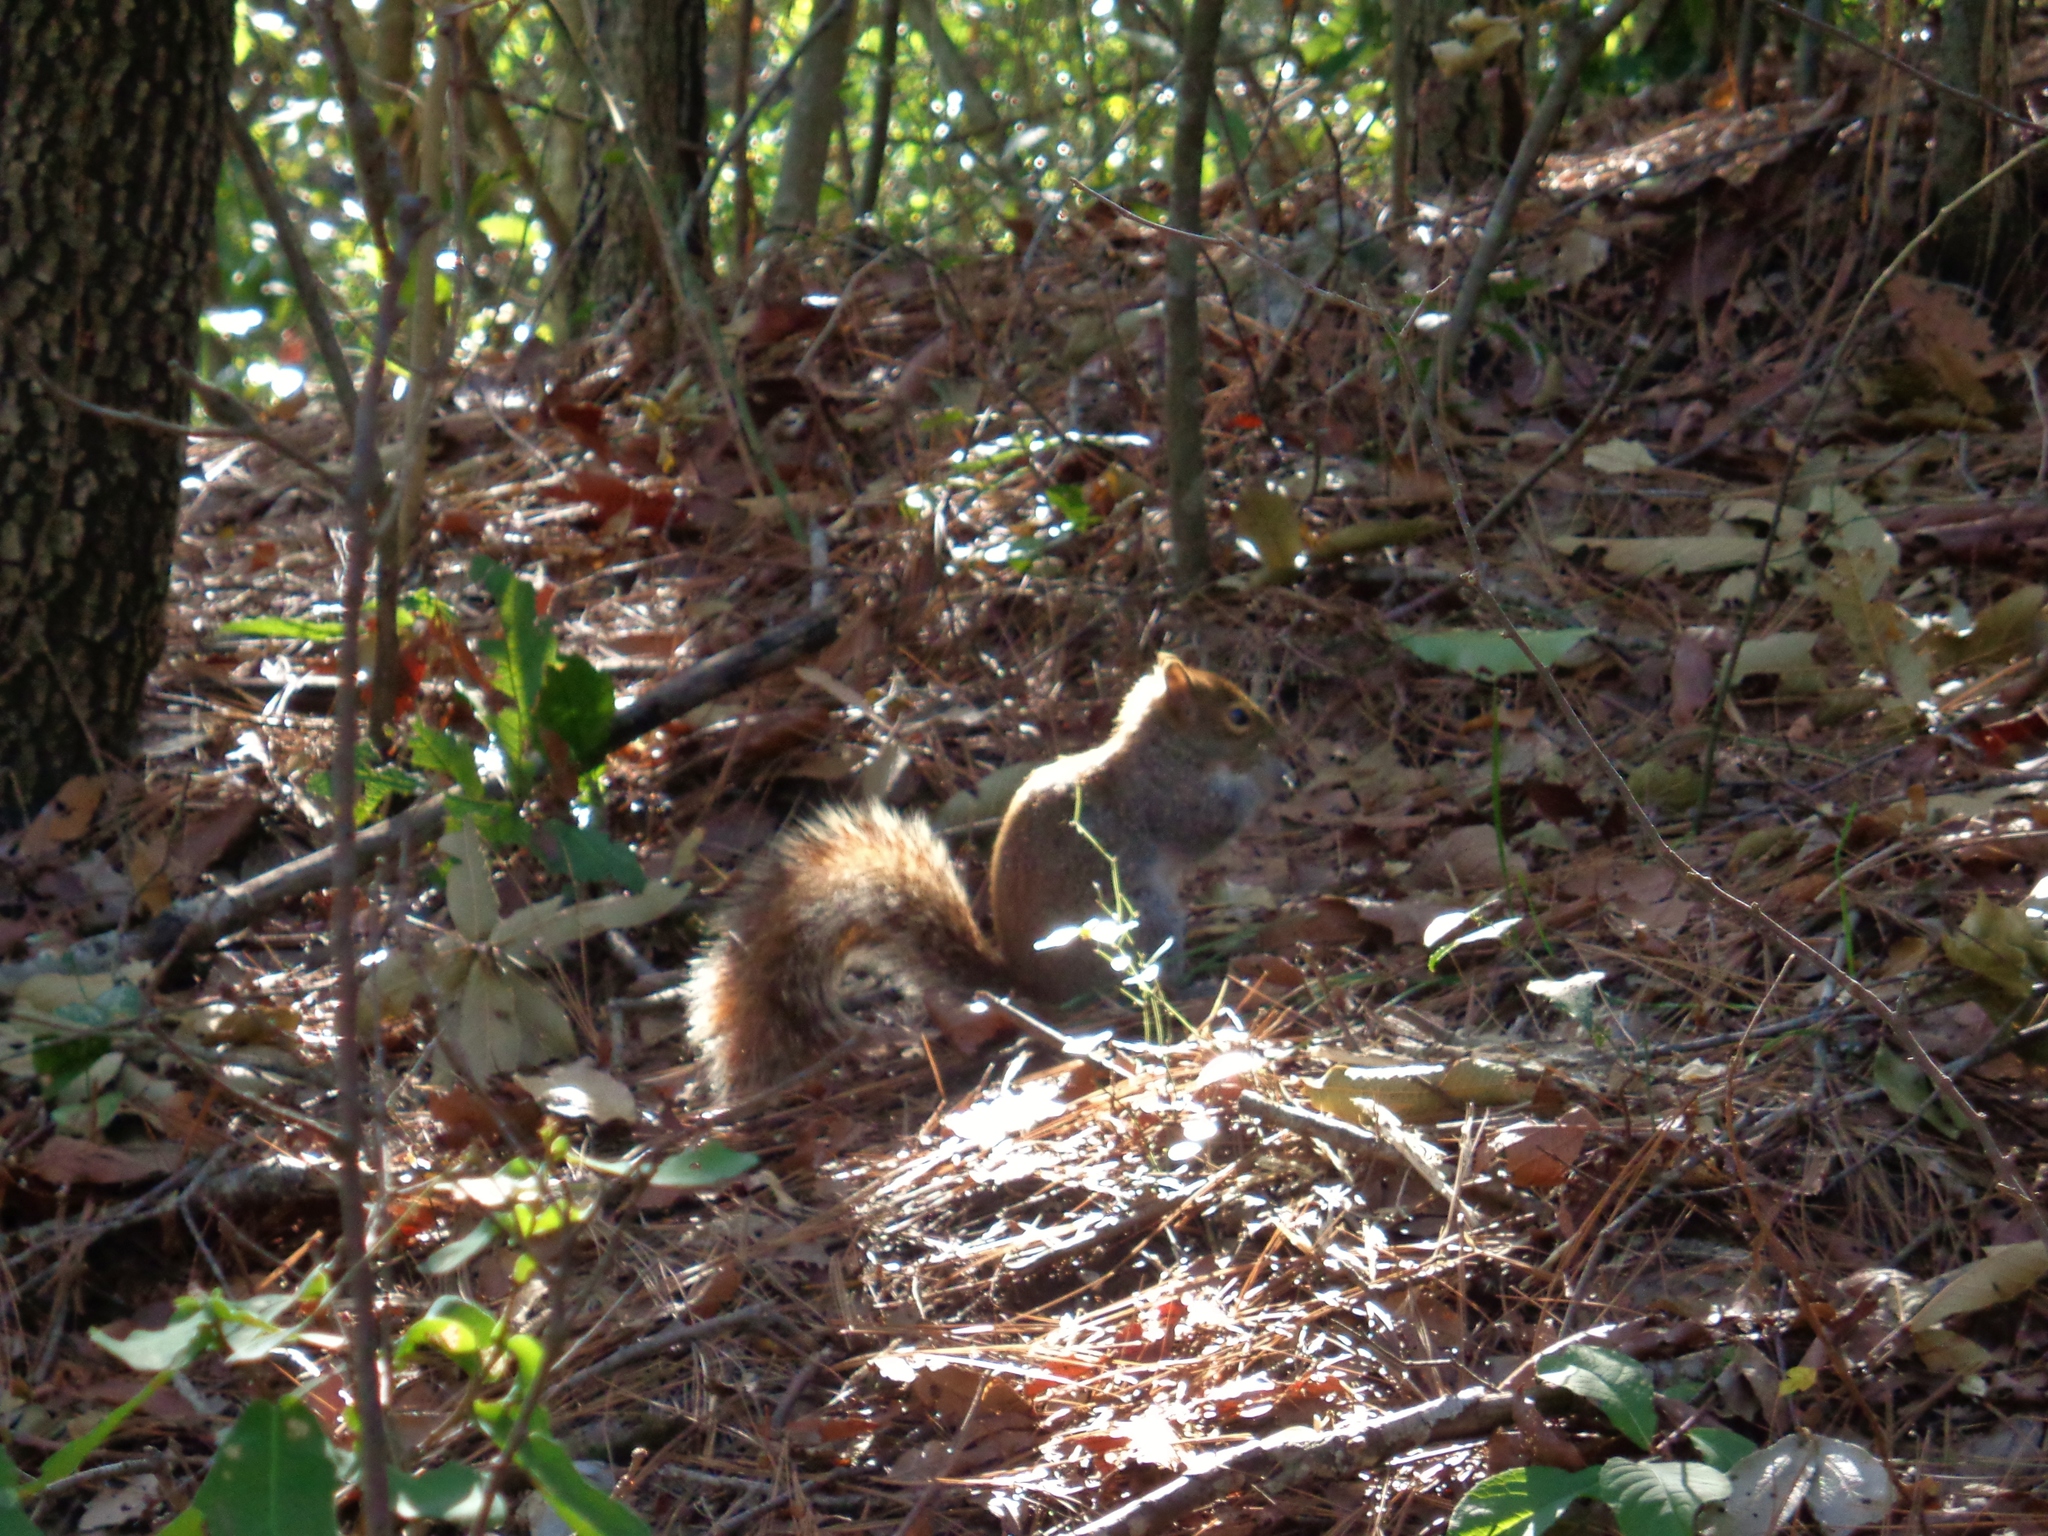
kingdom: Animalia
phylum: Chordata
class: Mammalia
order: Rodentia
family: Sciuridae
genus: Sciurus
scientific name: Sciurus alleni
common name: Allen's squirrel
